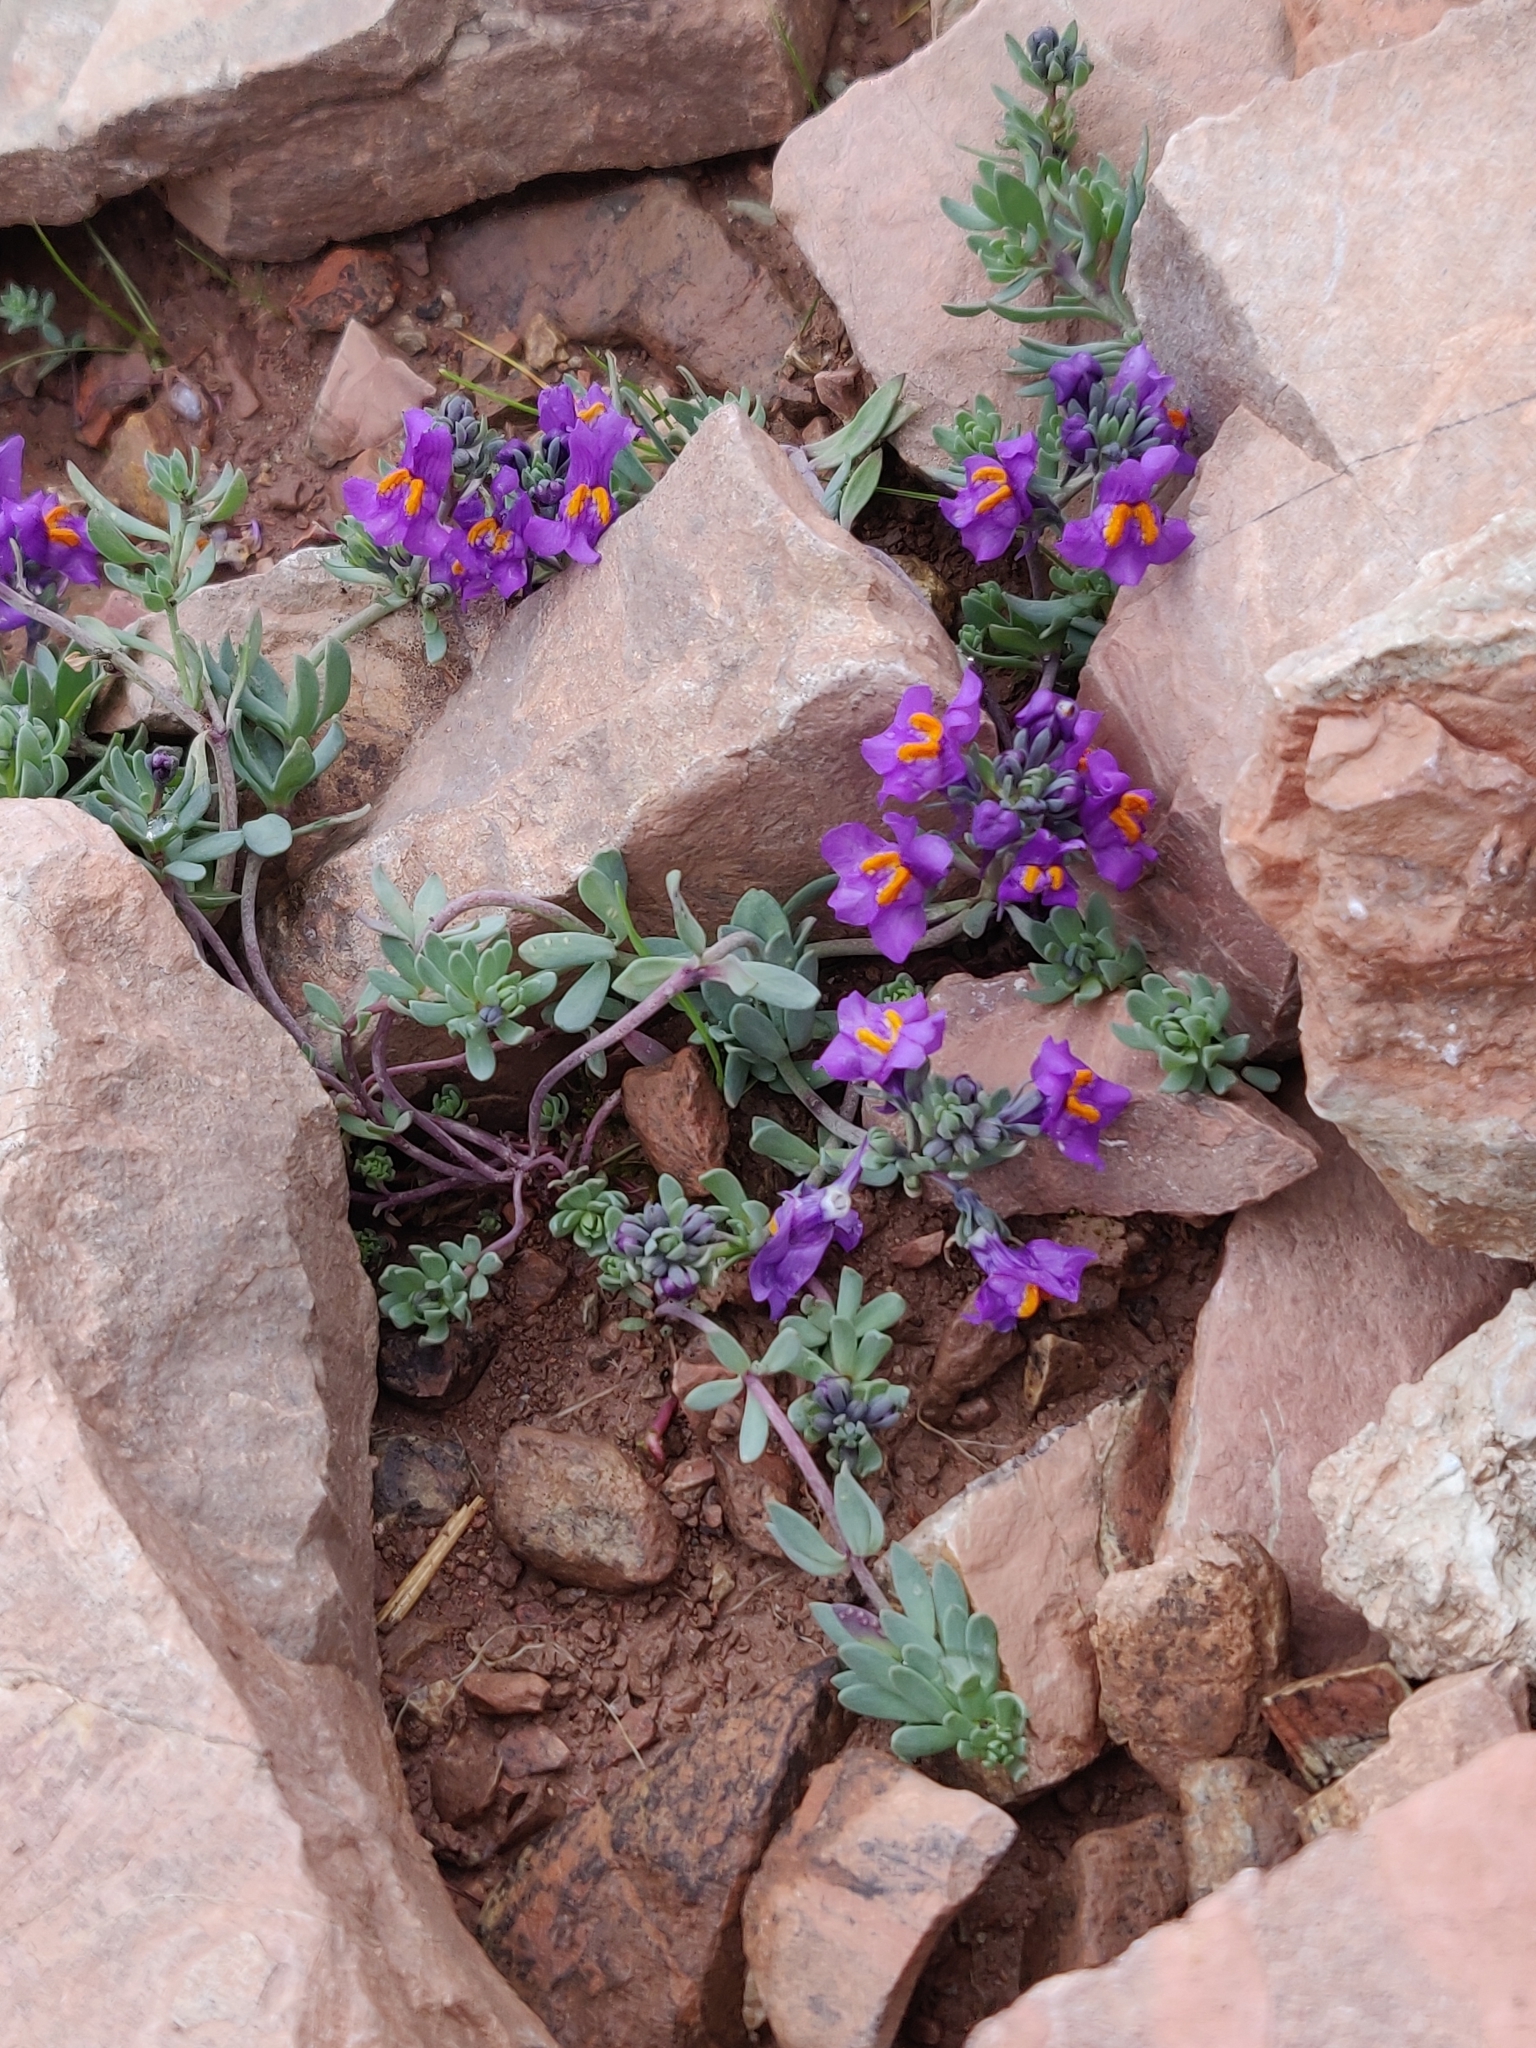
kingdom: Plantae
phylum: Tracheophyta
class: Magnoliopsida
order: Lamiales
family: Plantaginaceae
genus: Linaria
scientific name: Linaria alpina
